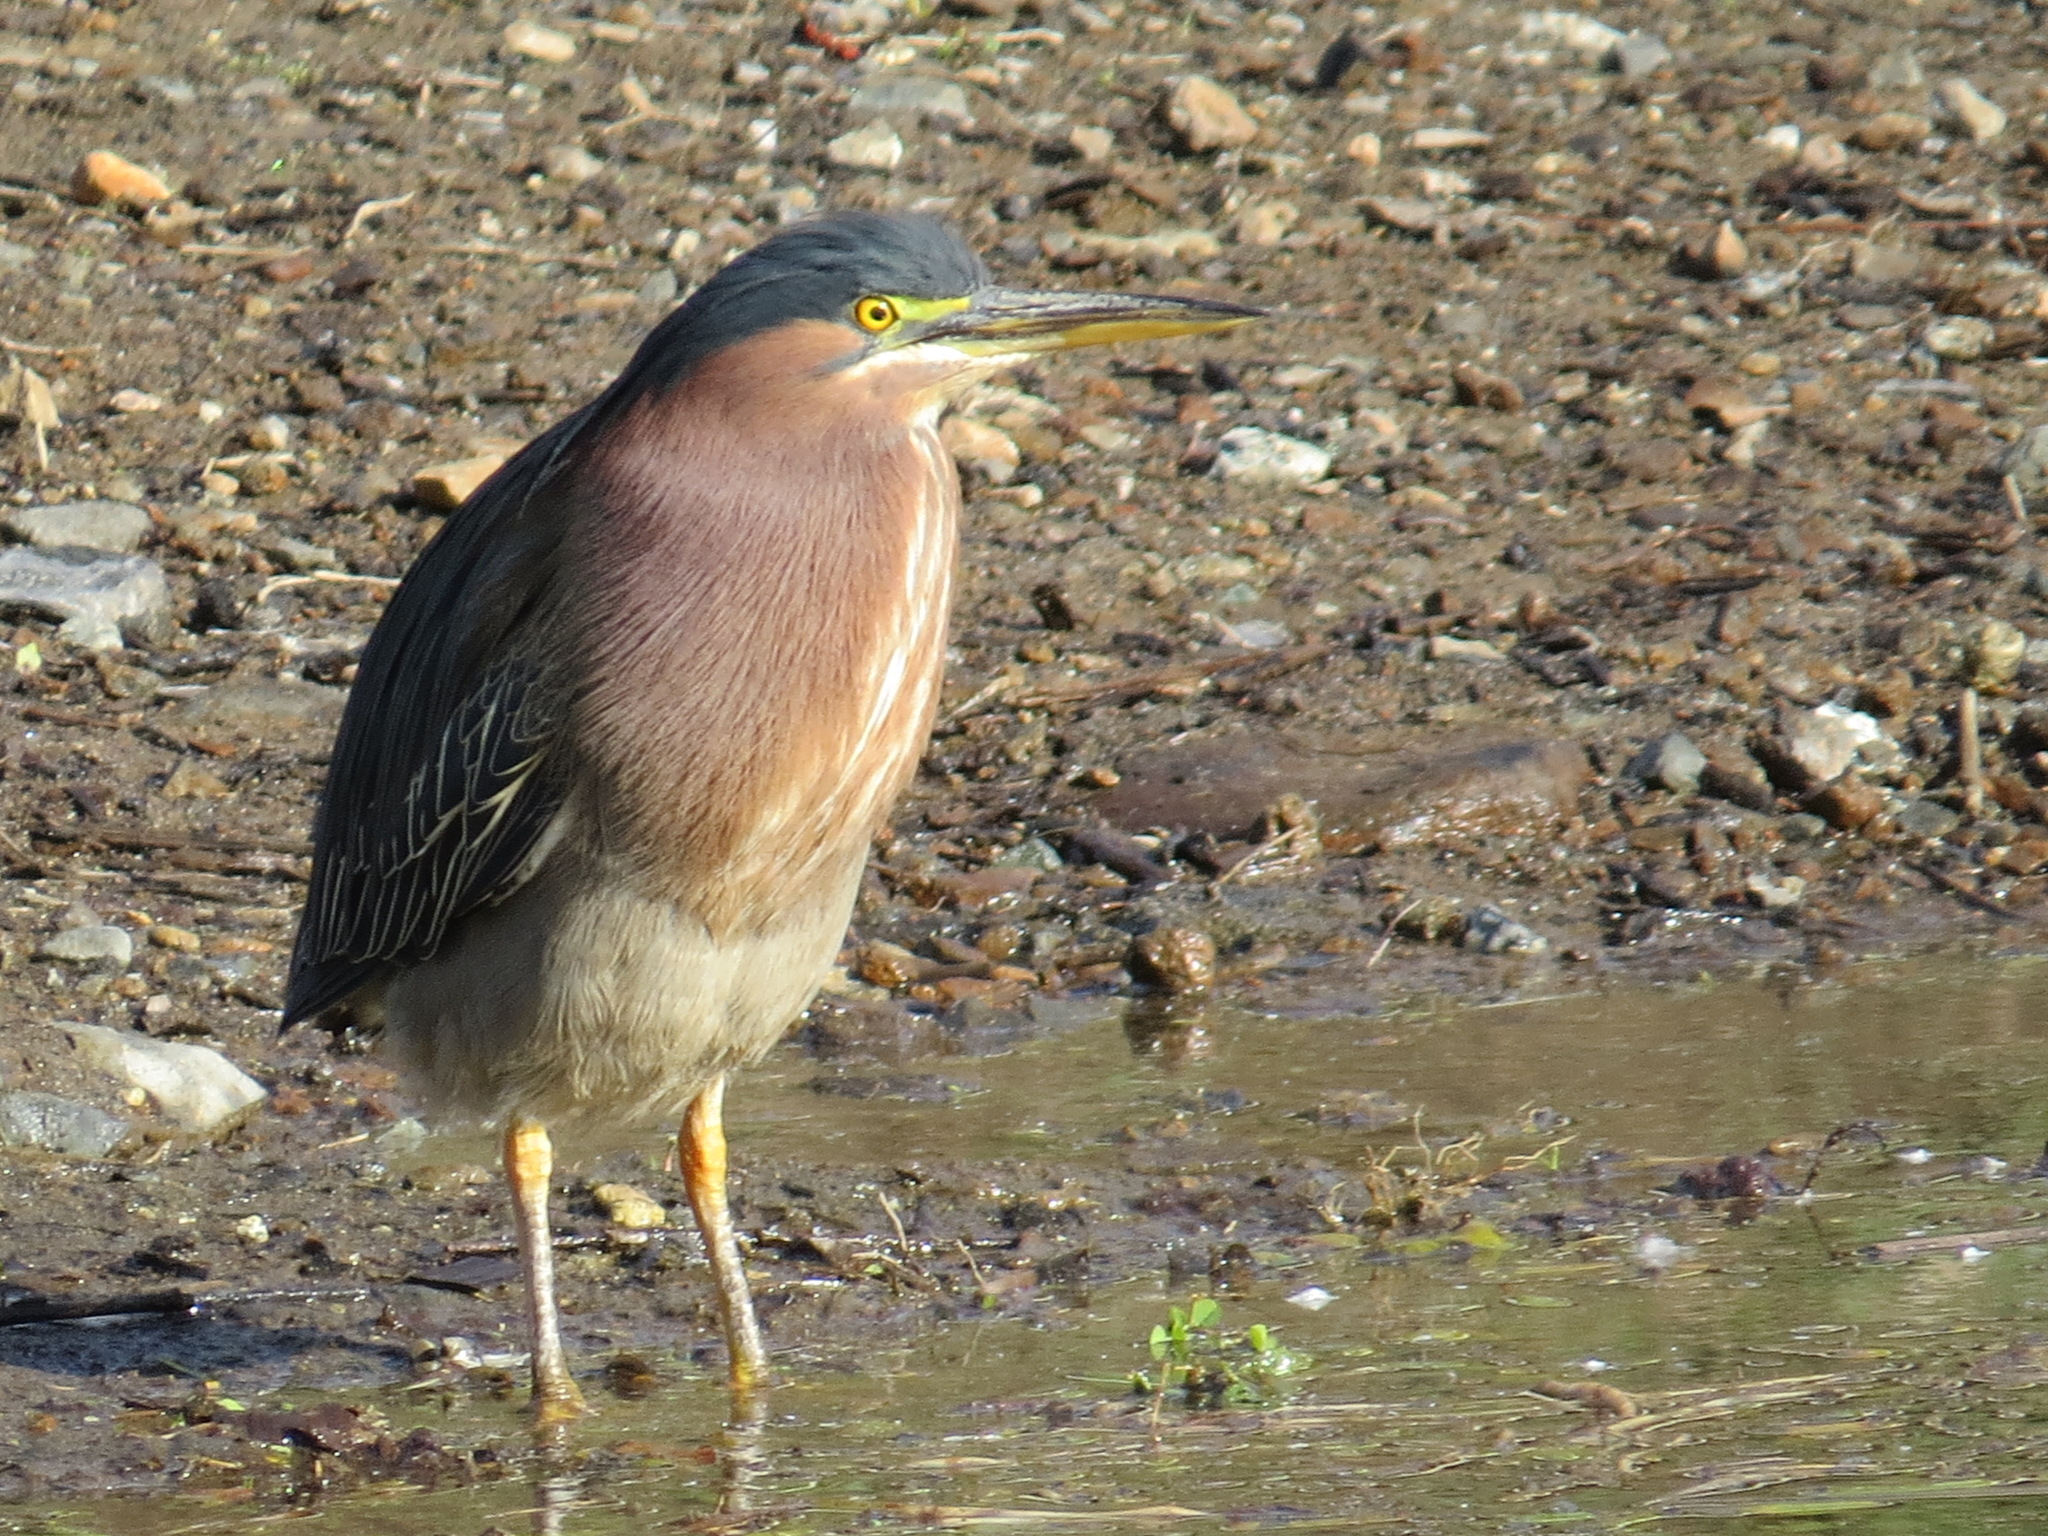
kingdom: Animalia
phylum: Chordata
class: Aves
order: Pelecaniformes
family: Ardeidae
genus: Butorides
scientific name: Butorides virescens
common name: Green heron
